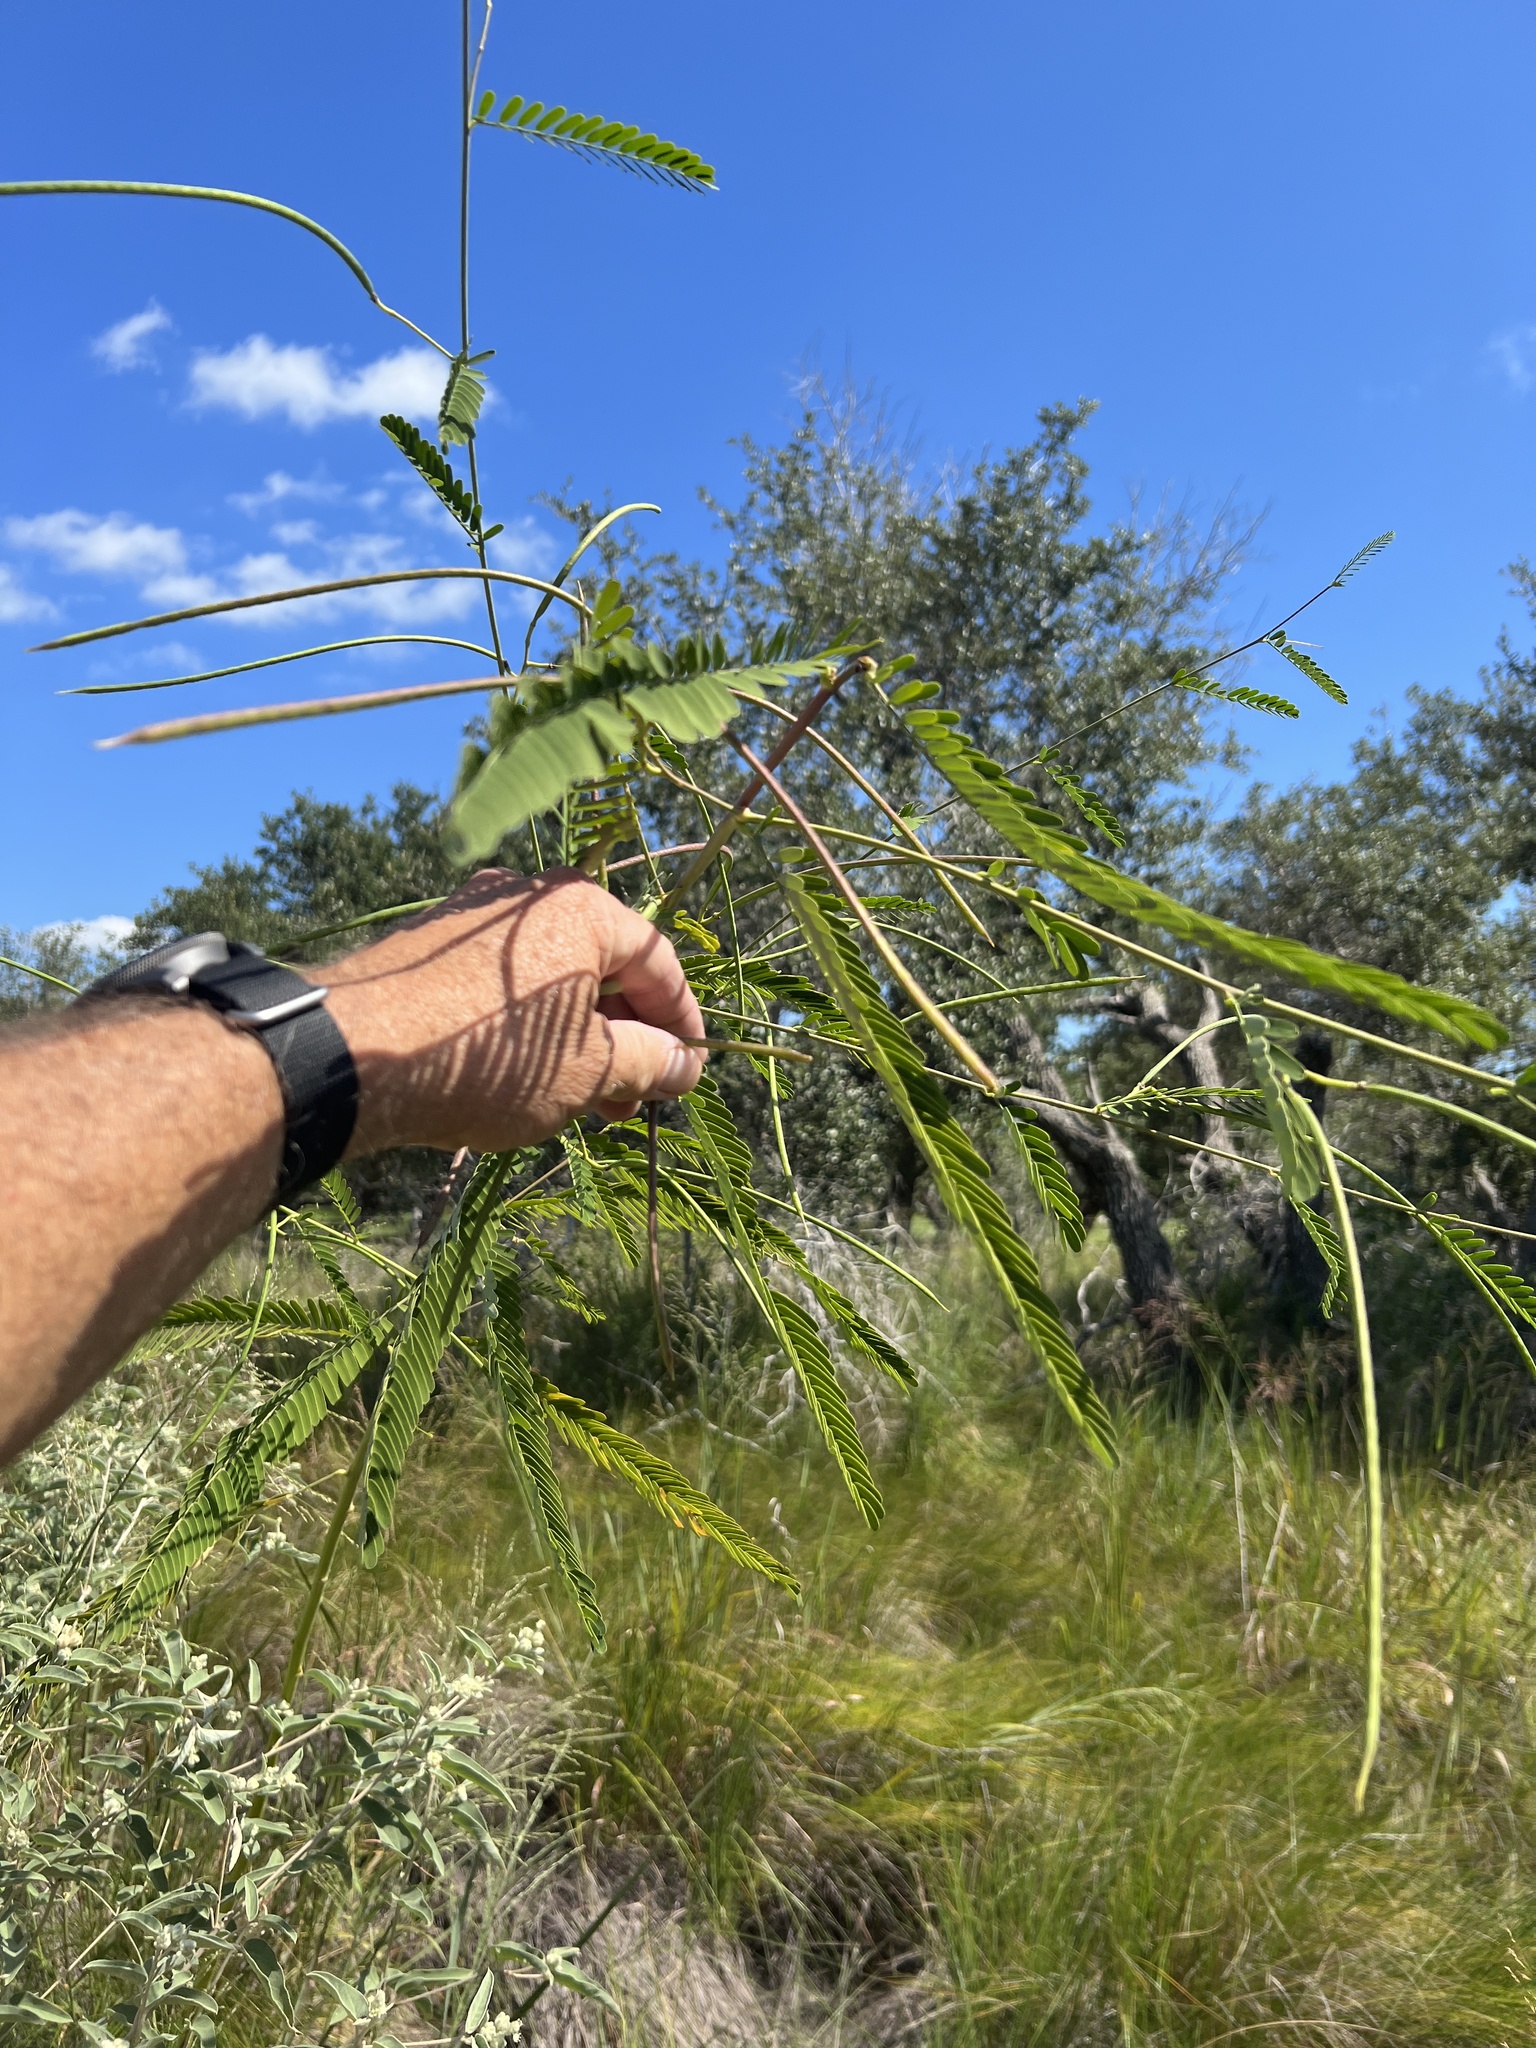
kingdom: Plantae
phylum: Tracheophyta
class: Magnoliopsida
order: Fabales
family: Fabaceae
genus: Sesbania
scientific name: Sesbania herbacea
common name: Bigpod sesbania
